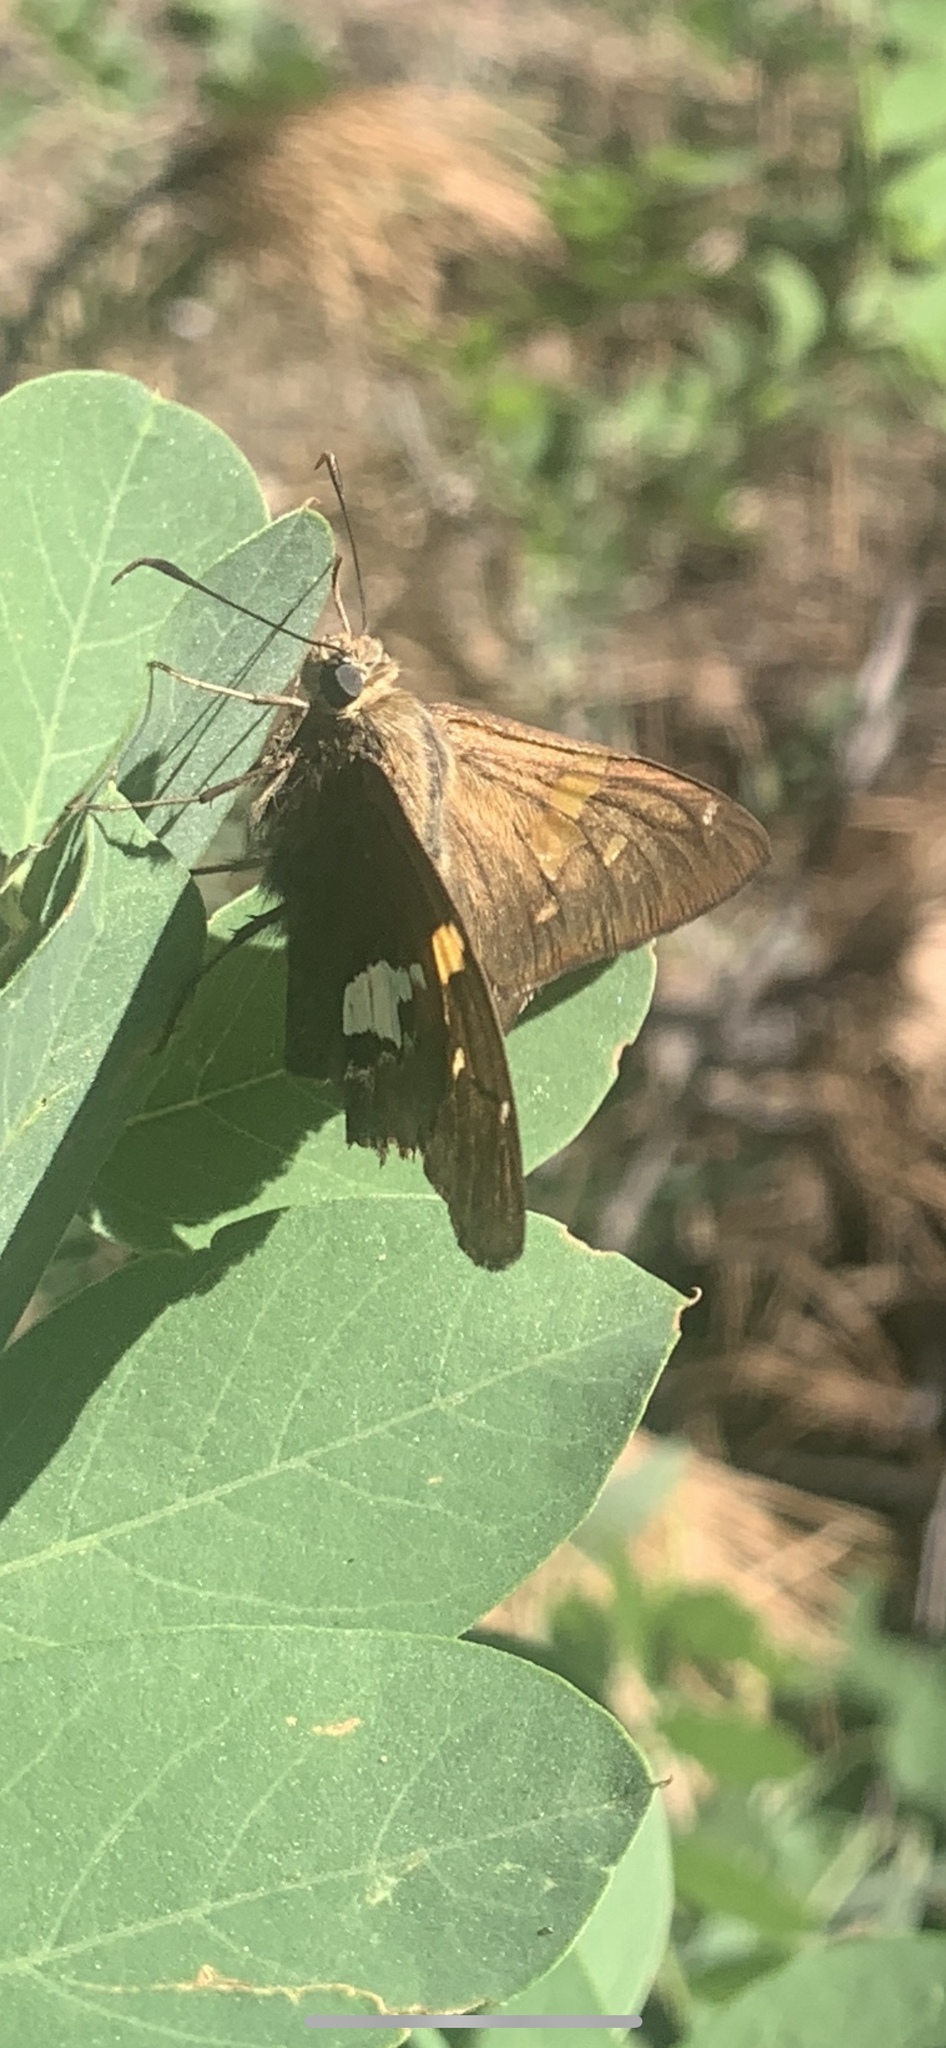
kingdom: Animalia
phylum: Arthropoda
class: Insecta
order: Lepidoptera
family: Hesperiidae
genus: Epargyreus
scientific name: Epargyreus clarus
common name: Silver-spotted skipper
